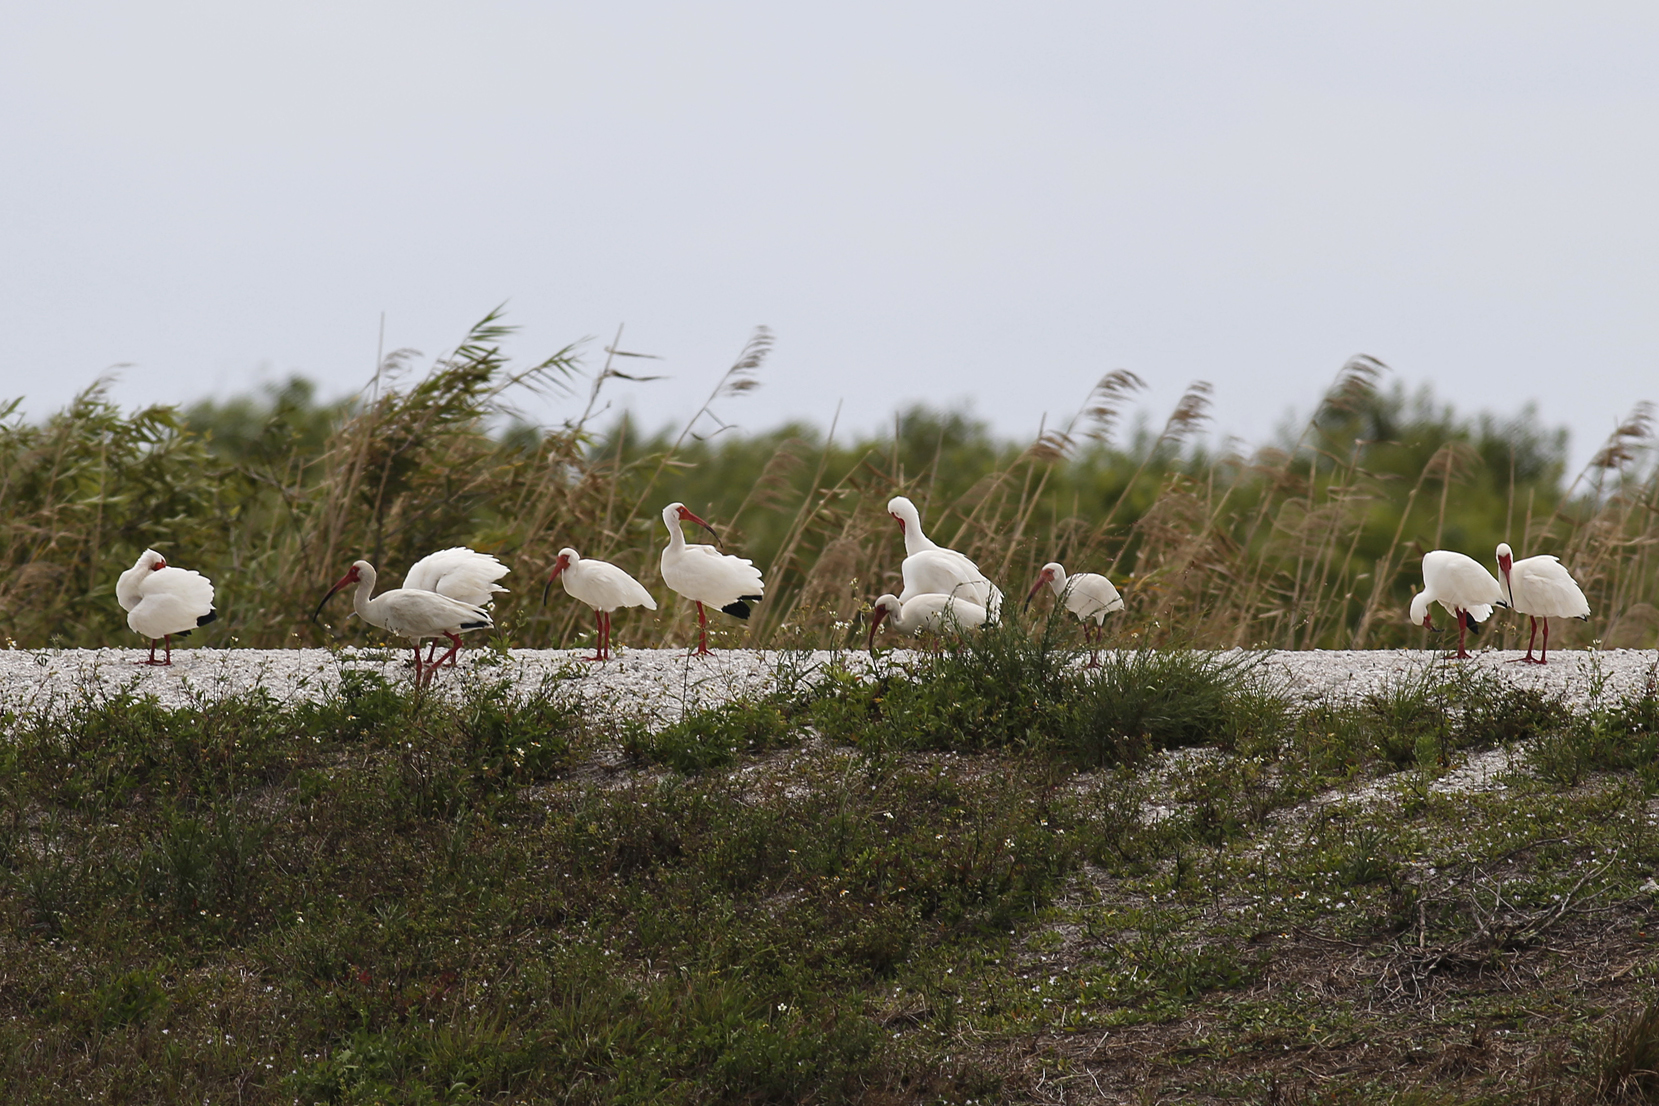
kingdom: Animalia
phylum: Chordata
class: Aves
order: Pelecaniformes
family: Threskiornithidae
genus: Eudocimus
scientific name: Eudocimus albus
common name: White ibis
